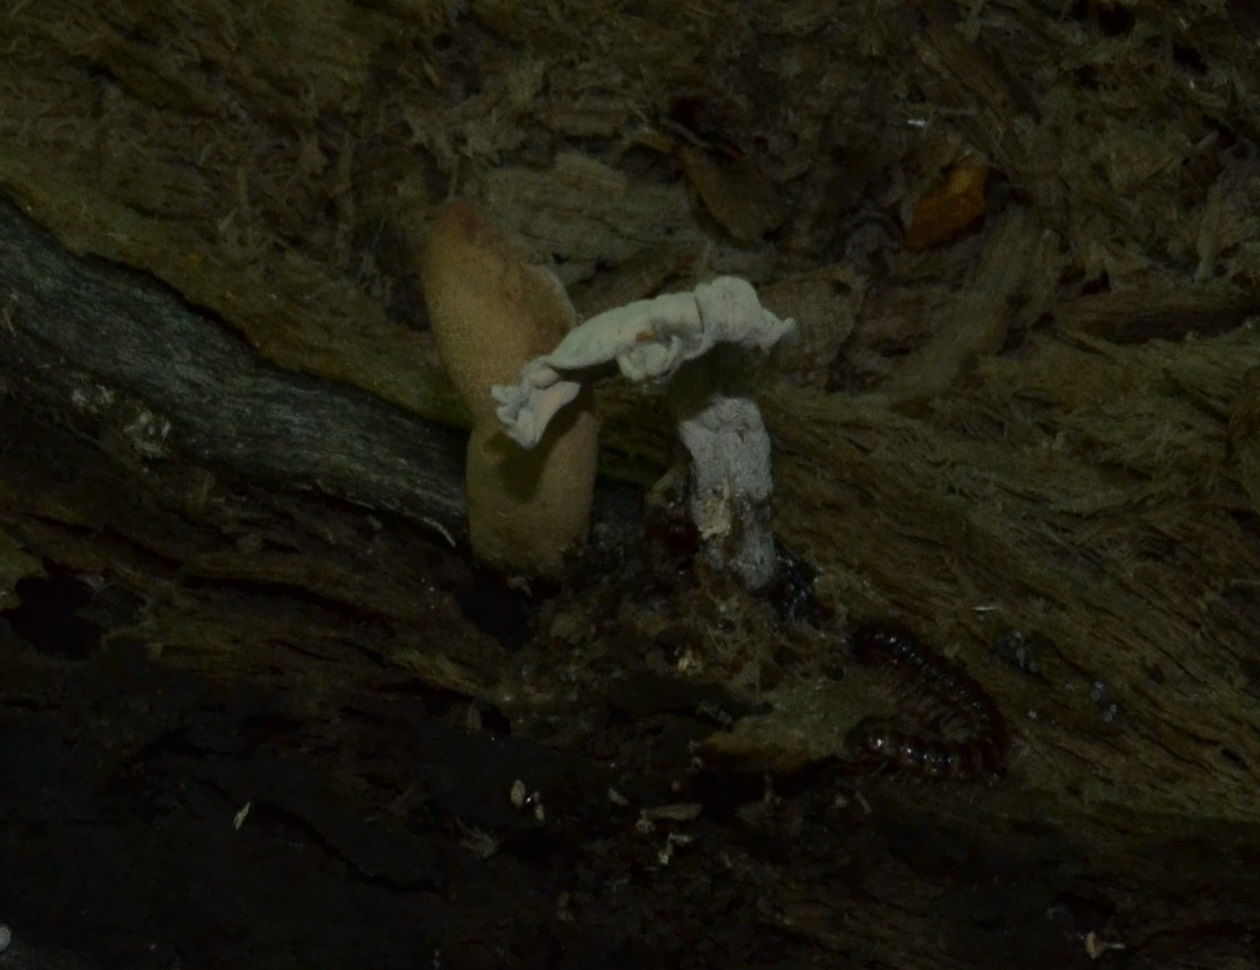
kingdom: Fungi
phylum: Ascomycota
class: Sordariomycetes
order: Xylariales
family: Xylariaceae
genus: Xylaria
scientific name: Xylaria cubensis
